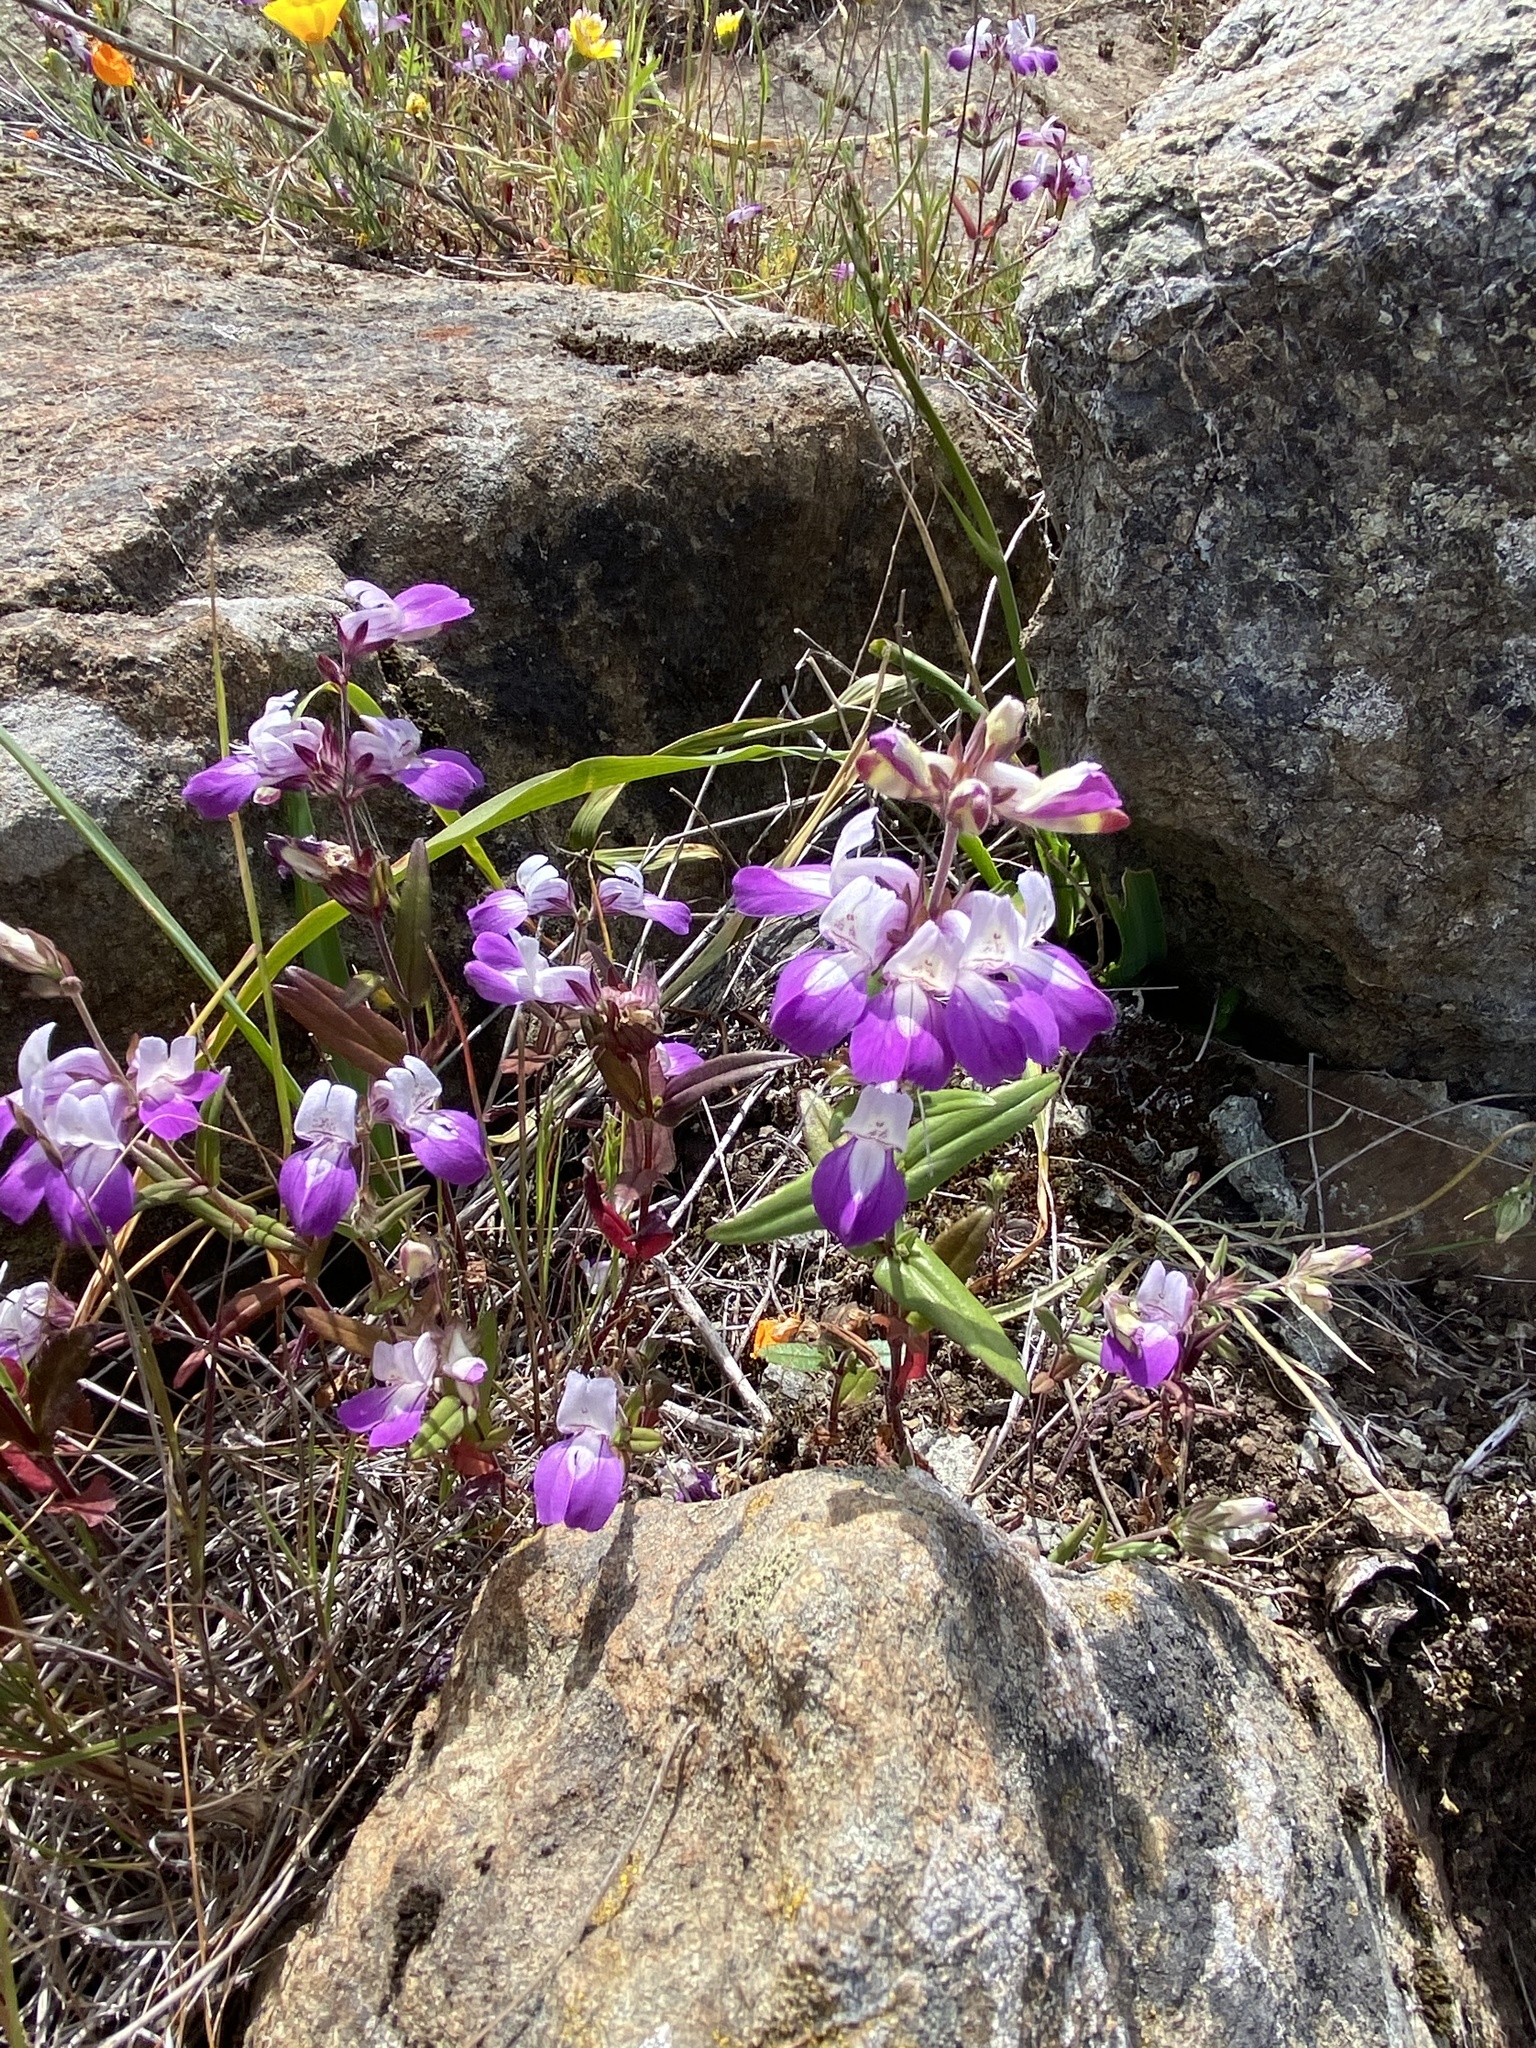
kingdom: Plantae
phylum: Tracheophyta
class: Magnoliopsida
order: Lamiales
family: Plantaginaceae
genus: Collinsia
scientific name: Collinsia heterophylla
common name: Chinese-houses
